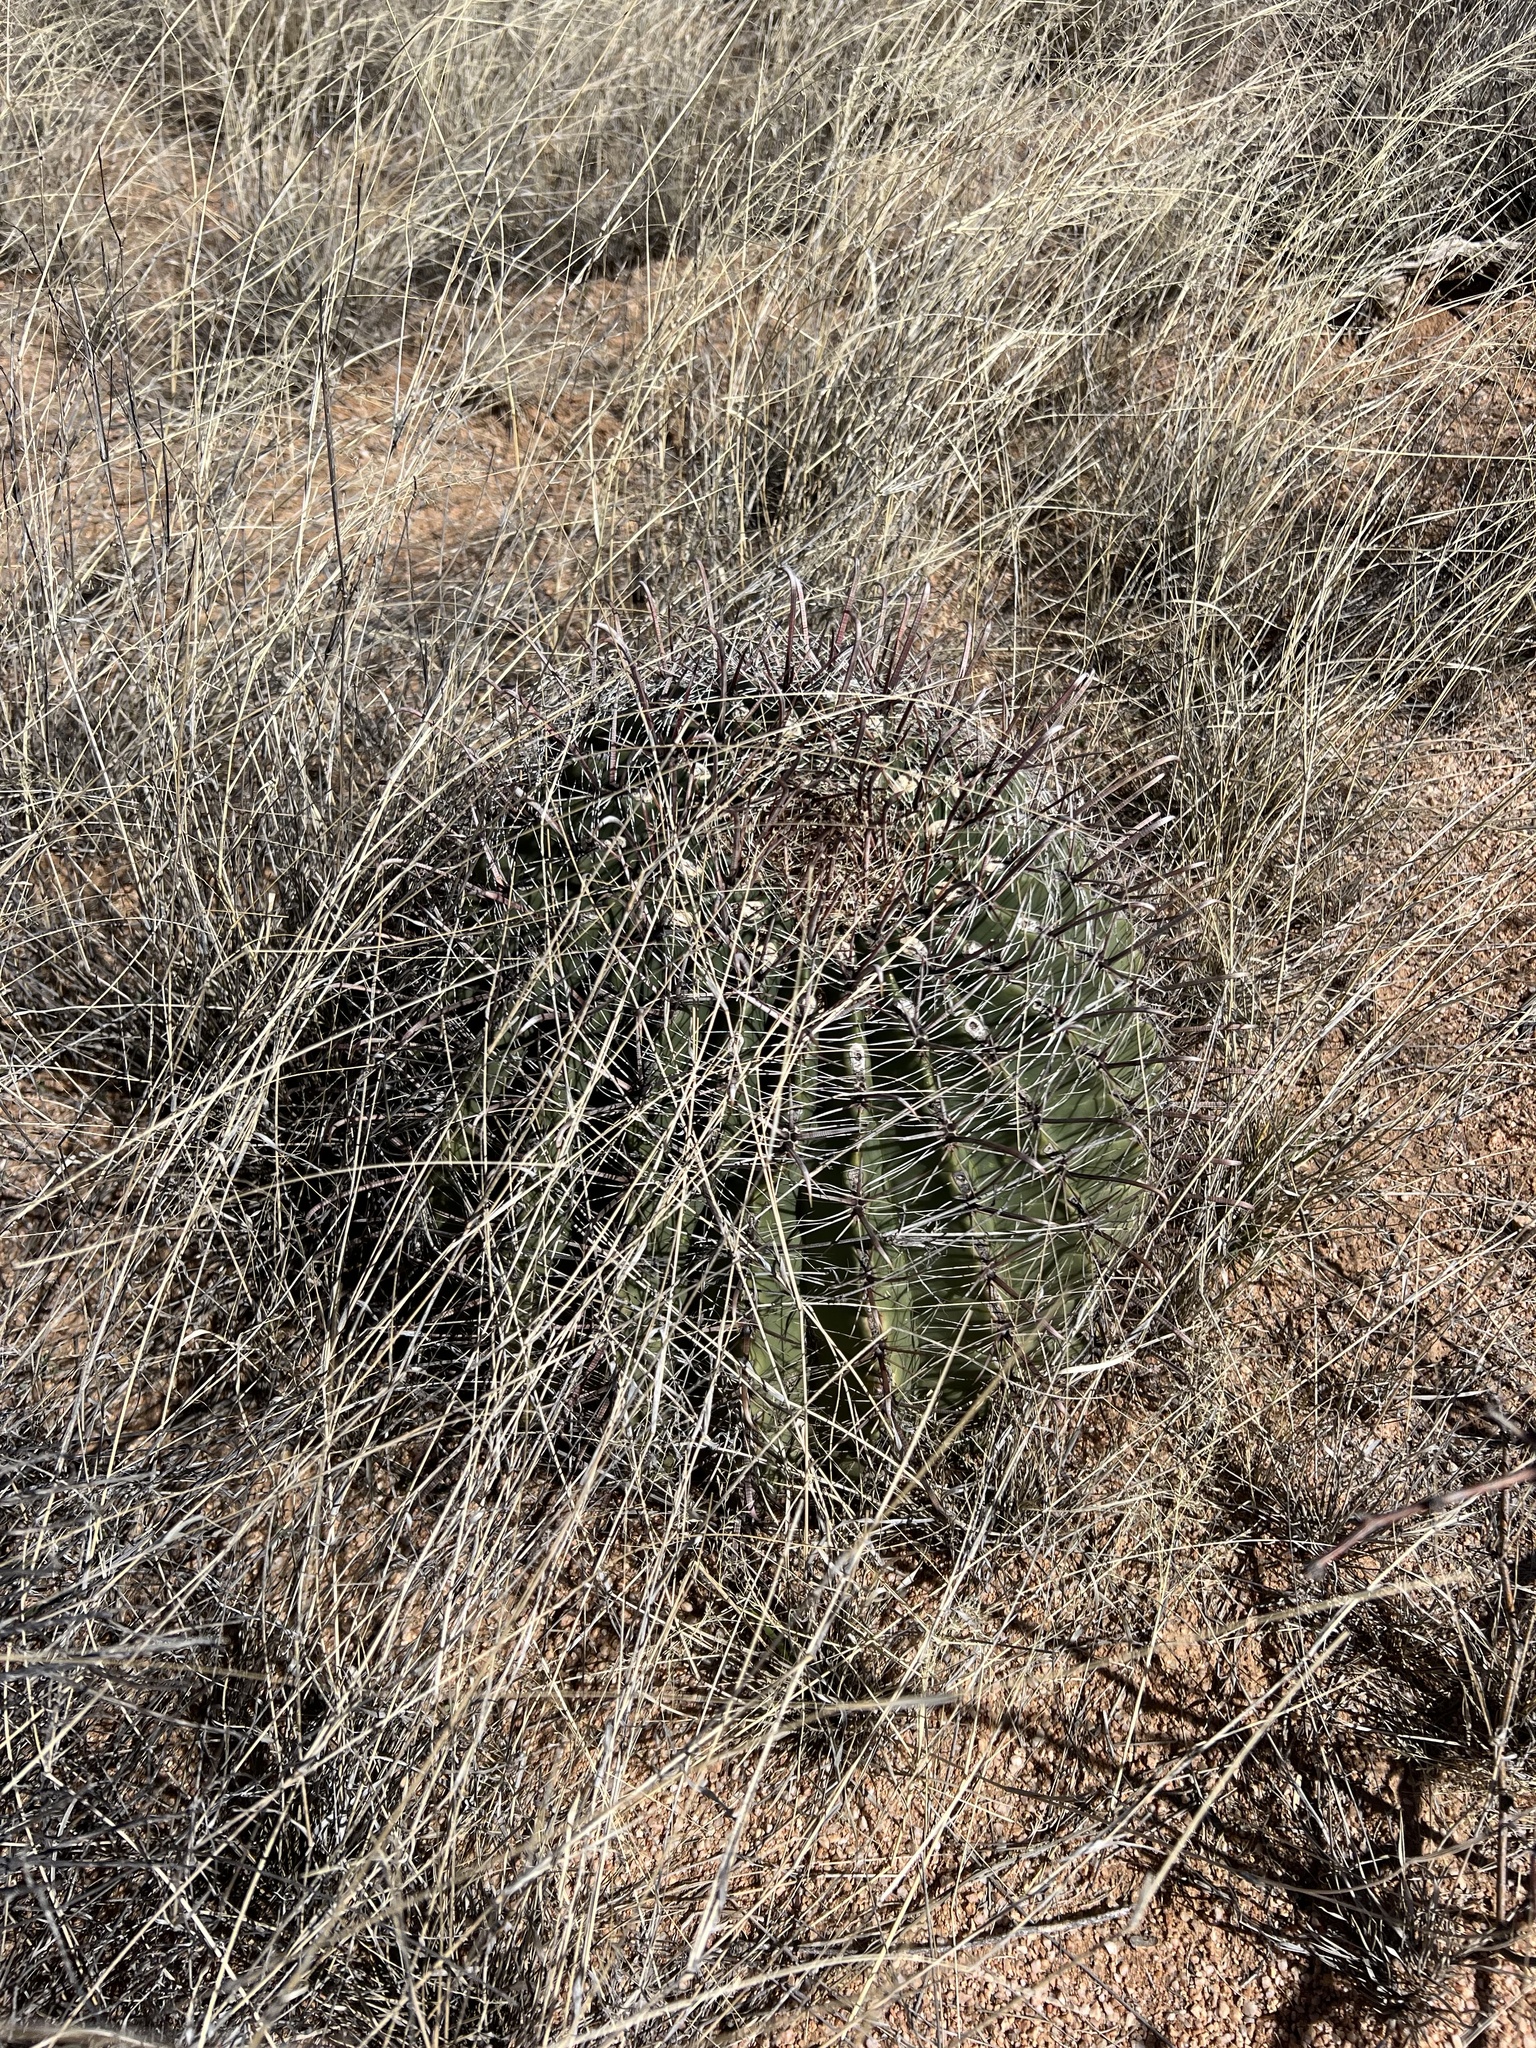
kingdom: Plantae
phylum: Tracheophyta
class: Magnoliopsida
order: Caryophyllales
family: Cactaceae
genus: Ferocactus
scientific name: Ferocactus wislizeni
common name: Candy barrel cactus
